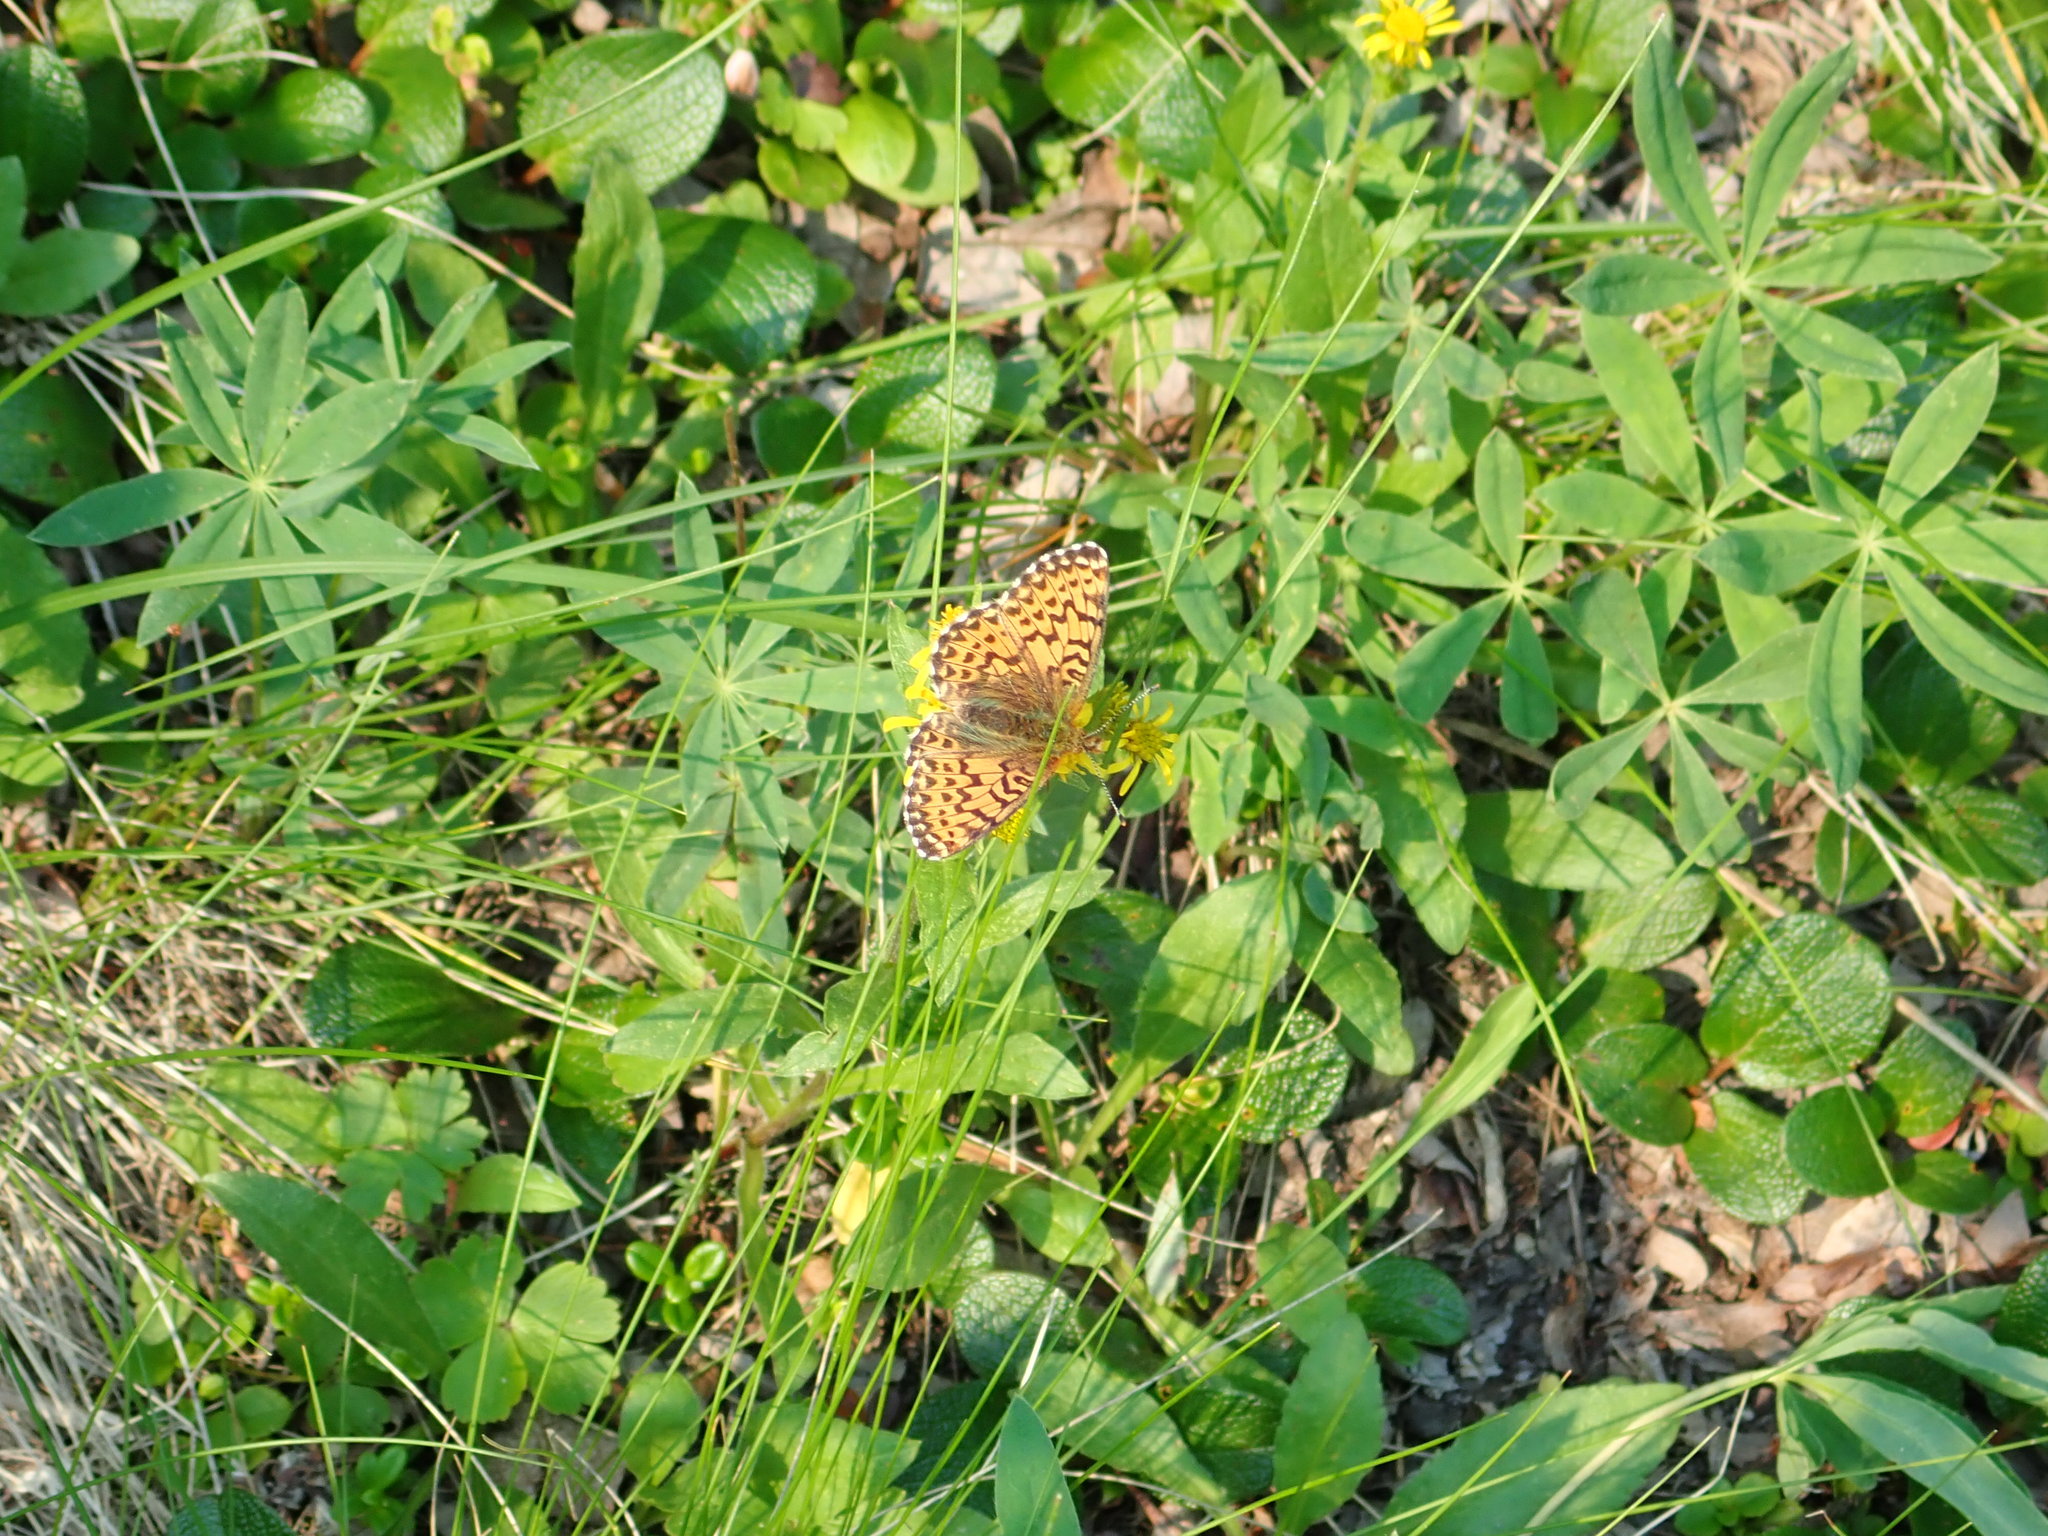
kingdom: Animalia
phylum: Arthropoda
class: Insecta
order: Lepidoptera
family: Nymphalidae
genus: Boloria
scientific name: Boloria chariclea
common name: Arctic fritillary
